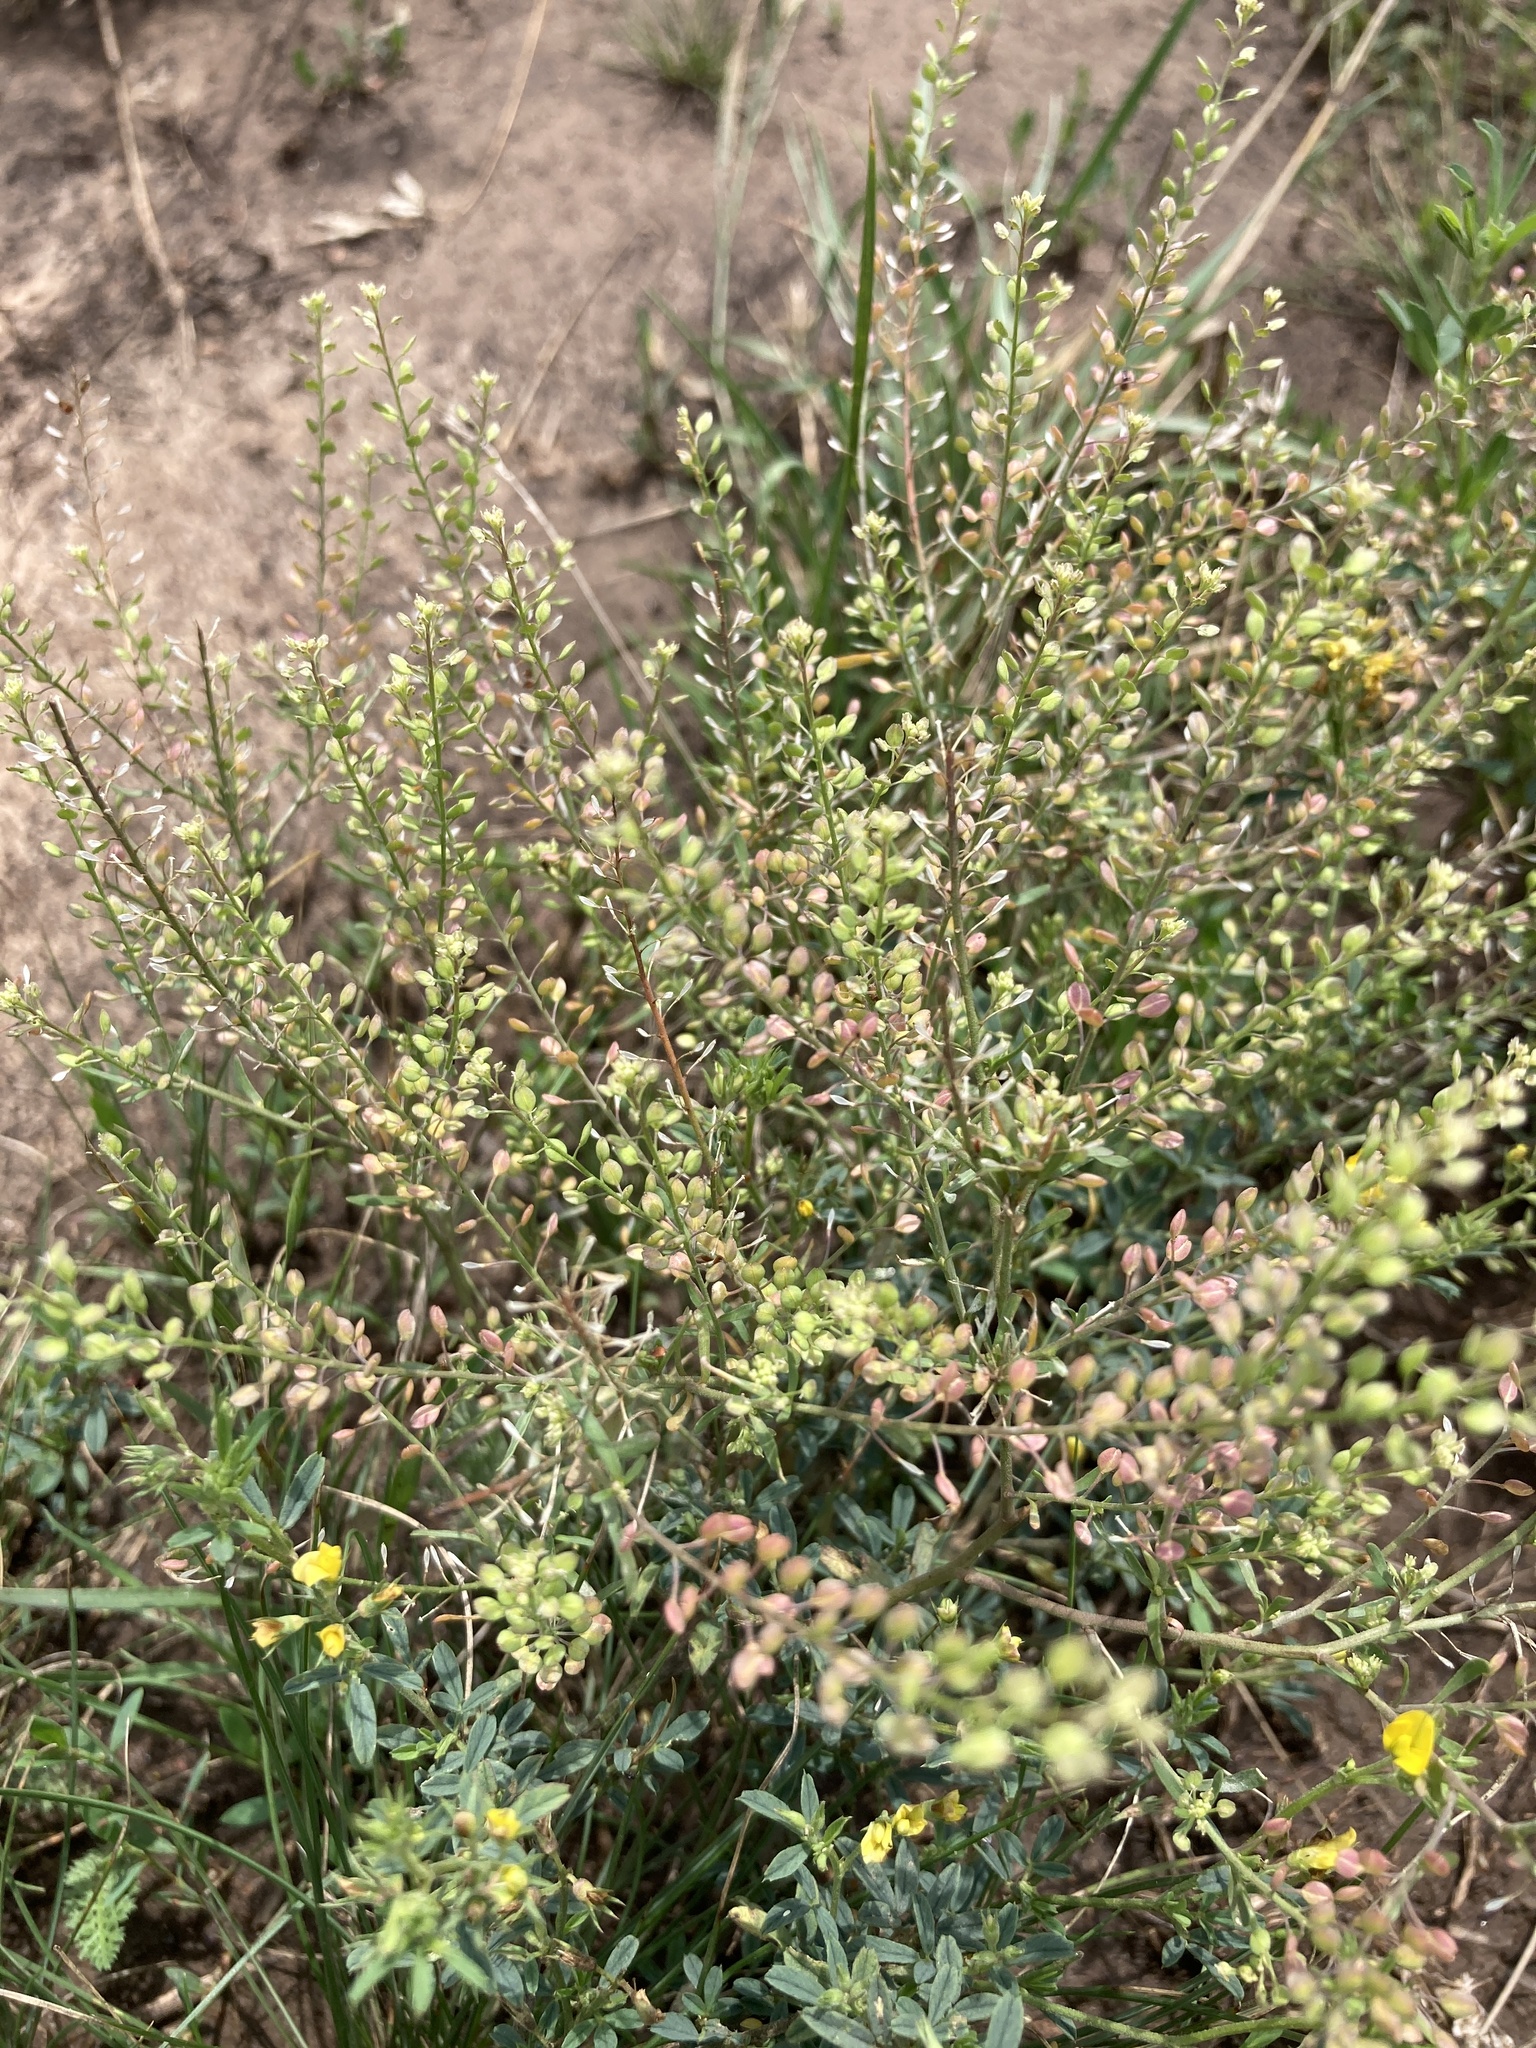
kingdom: Plantae
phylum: Tracheophyta
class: Magnoliopsida
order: Brassicales
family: Brassicaceae
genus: Lepidium
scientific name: Lepidium ruderale
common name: Narrow-leaved pepperwort
